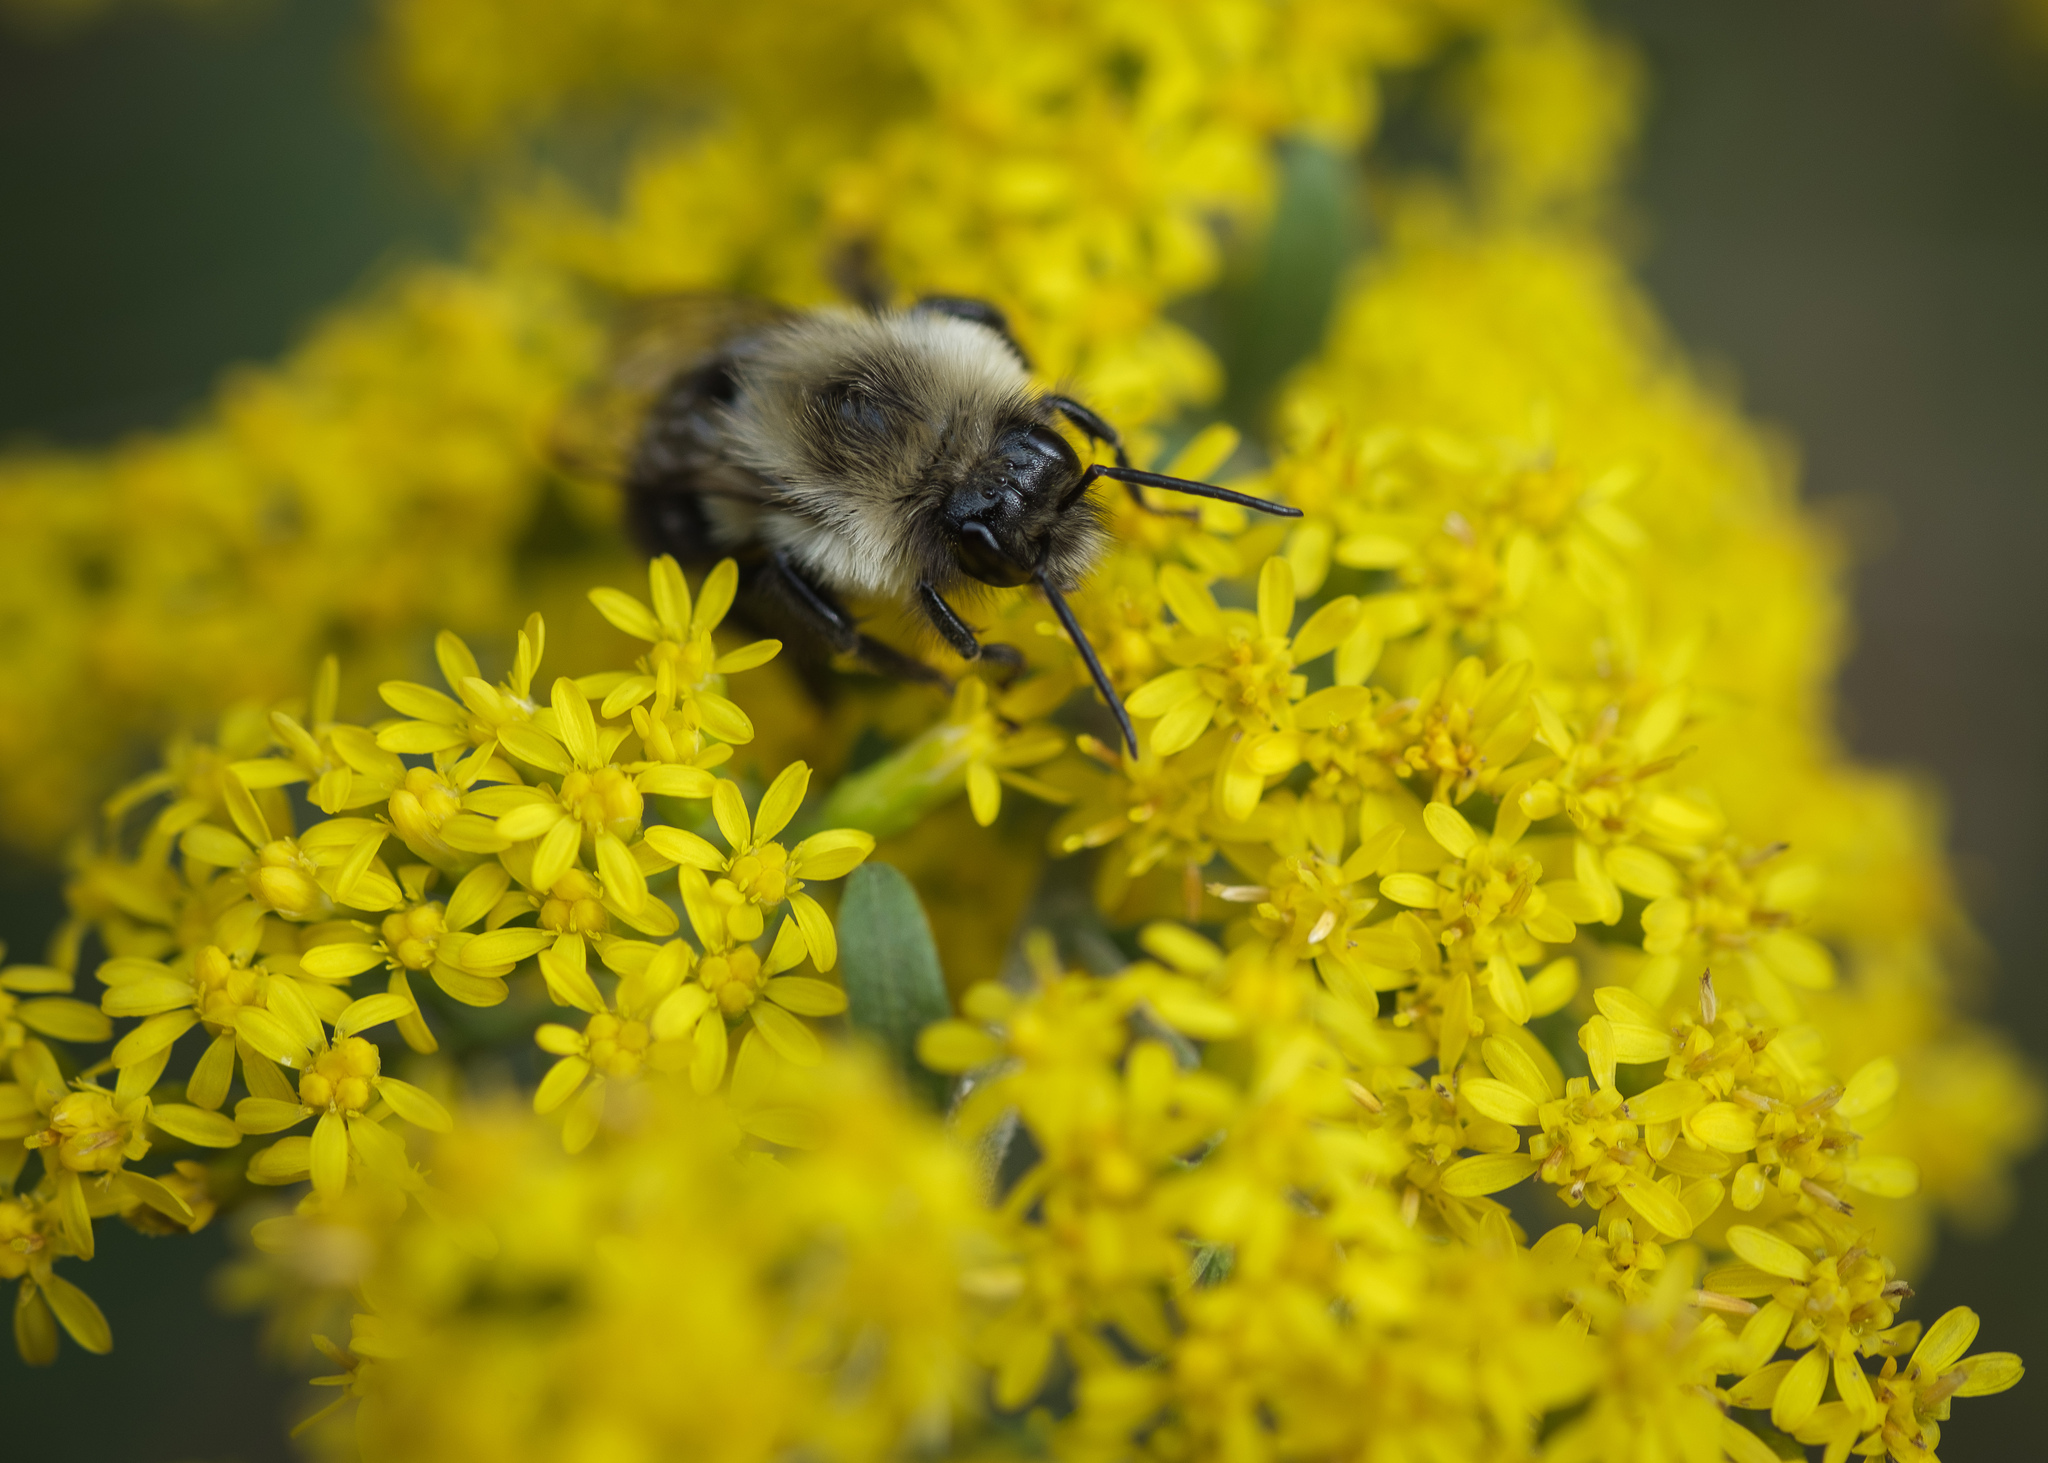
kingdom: Animalia
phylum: Arthropoda
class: Insecta
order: Hymenoptera
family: Apidae
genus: Bombus
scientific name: Bombus impatiens
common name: Common eastern bumble bee
